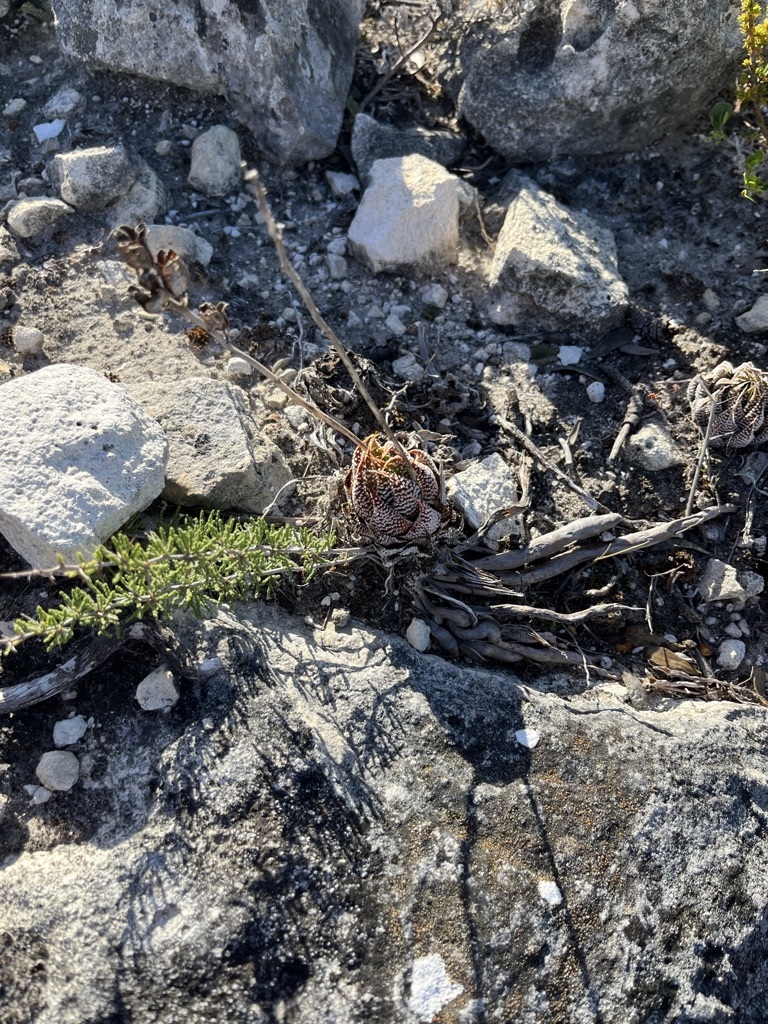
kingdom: Plantae
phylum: Tracheophyta
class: Liliopsida
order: Asparagales
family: Asphodelaceae
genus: Tulista
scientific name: Tulista minor
